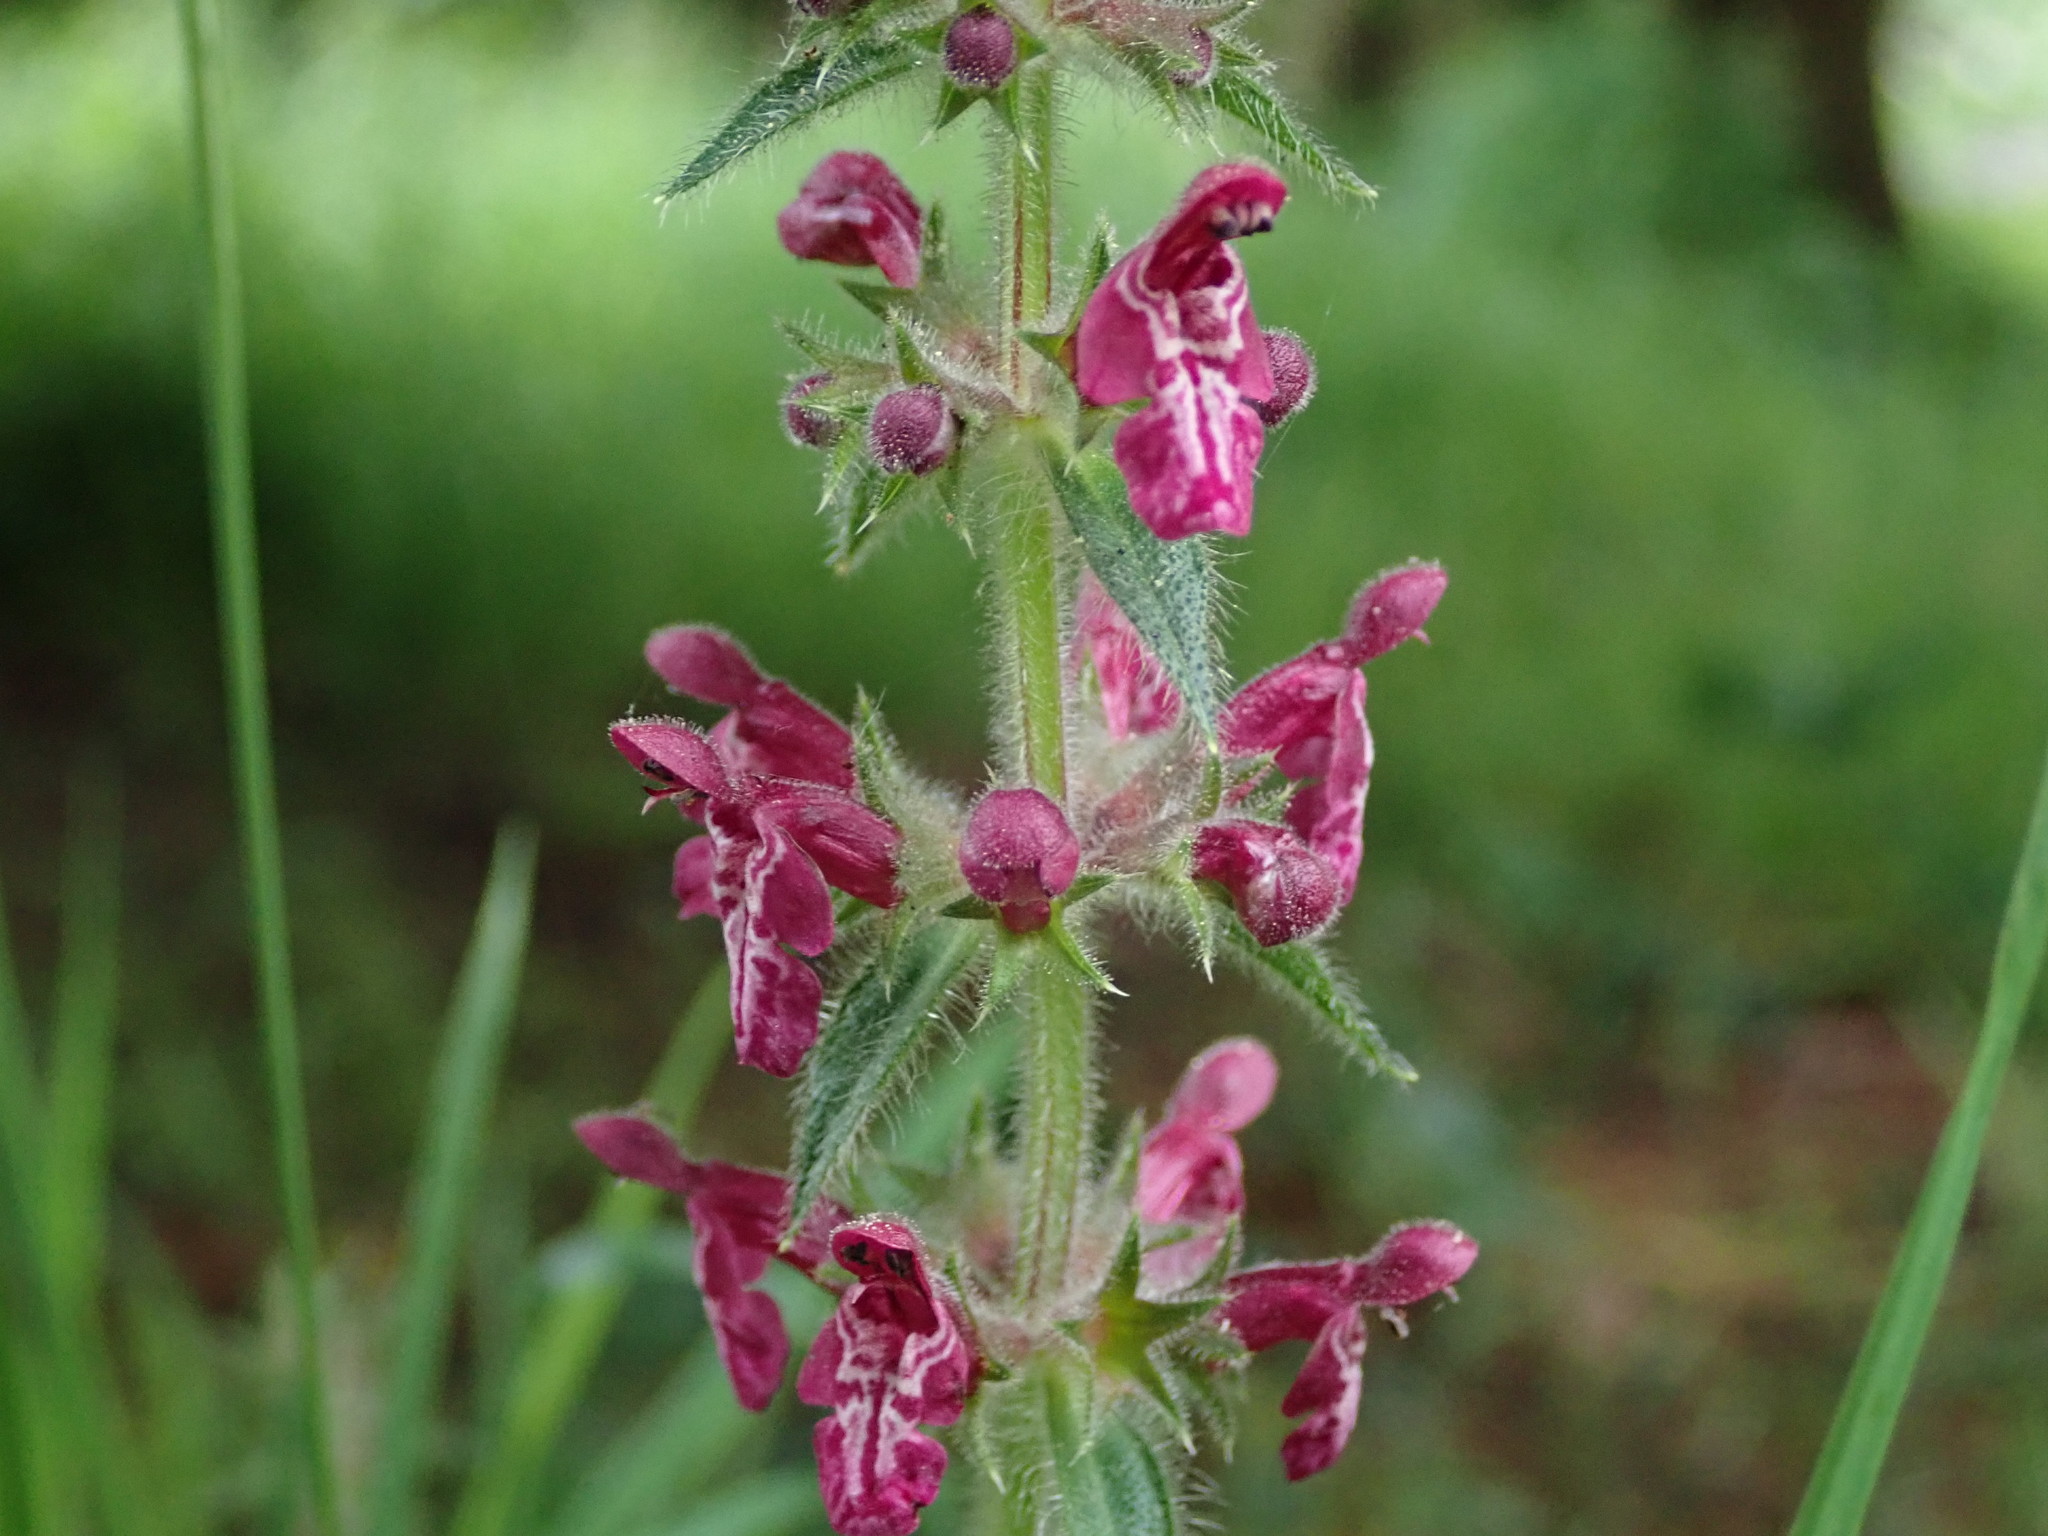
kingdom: Plantae
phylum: Tracheophyta
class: Magnoliopsida
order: Lamiales
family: Lamiaceae
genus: Stachys
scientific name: Stachys sylvatica
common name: Hedge woundwort
